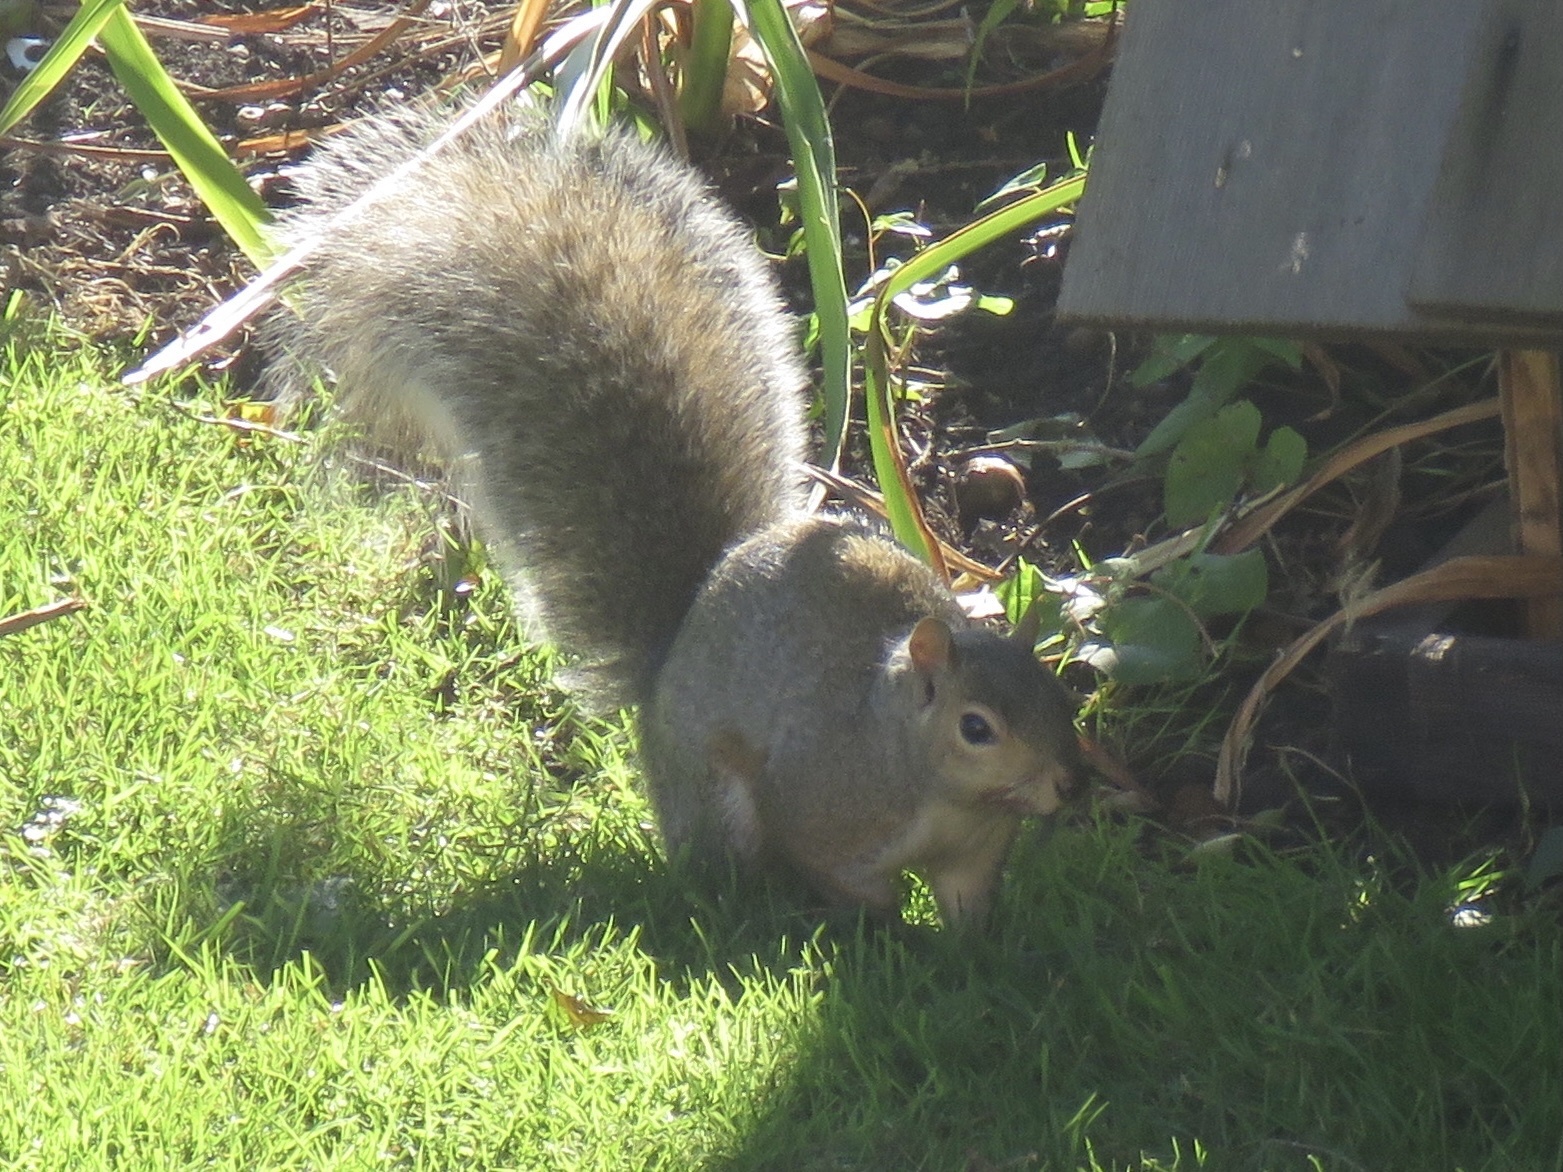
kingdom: Animalia
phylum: Chordata
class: Mammalia
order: Rodentia
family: Sciuridae
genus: Sciurus
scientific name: Sciurus carolinensis
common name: Eastern gray squirrel
